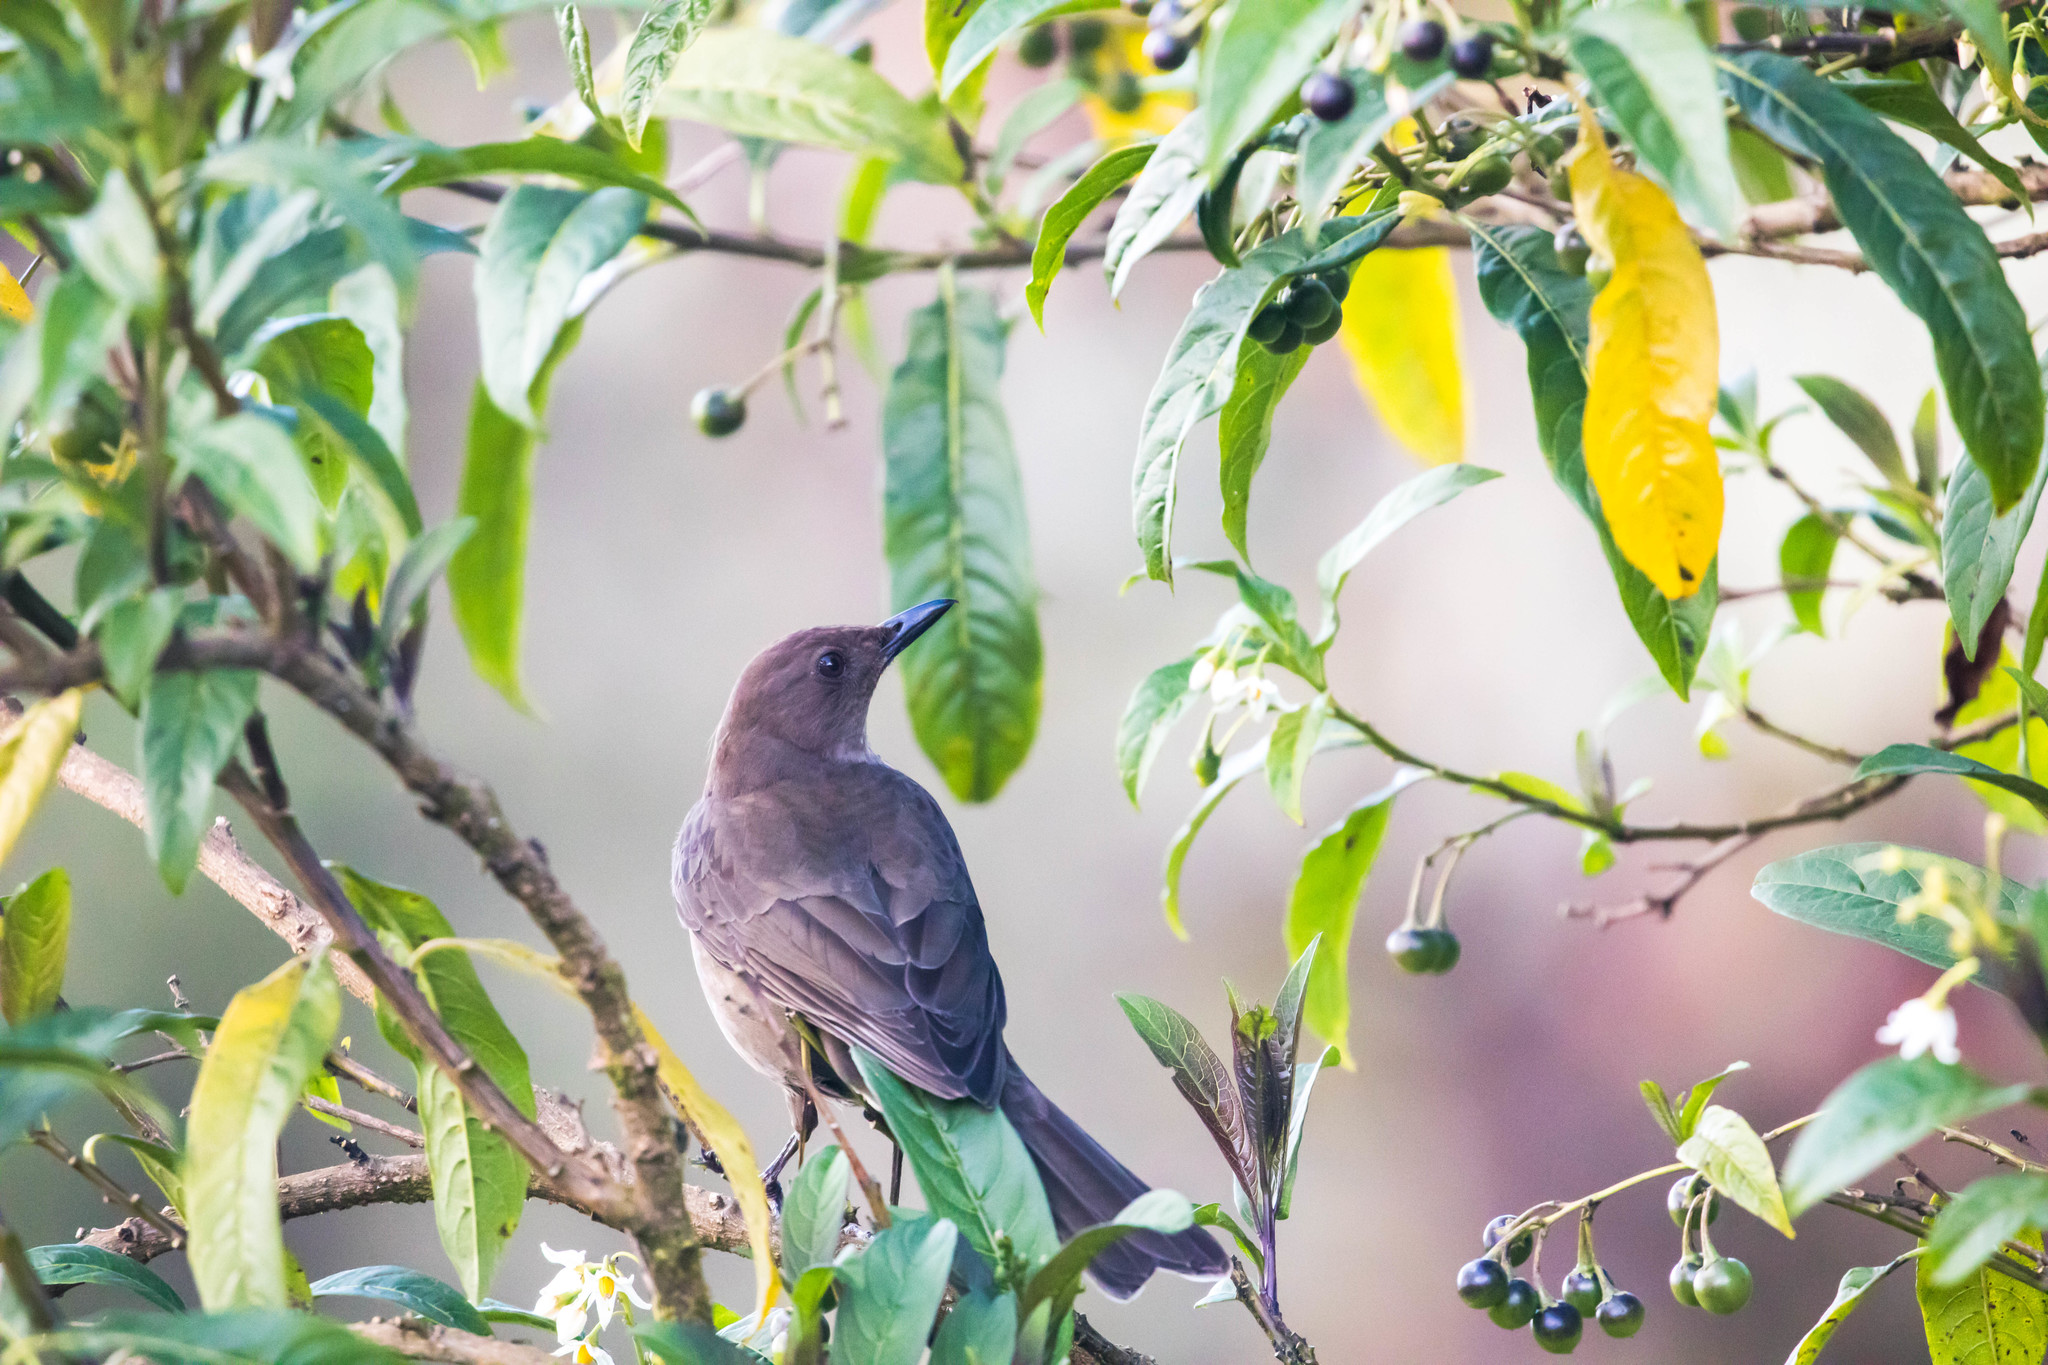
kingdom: Animalia
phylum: Chordata
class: Aves
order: Passeriformes
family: Turdidae
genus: Turdus
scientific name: Turdus plebejus
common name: Mountain thrush
